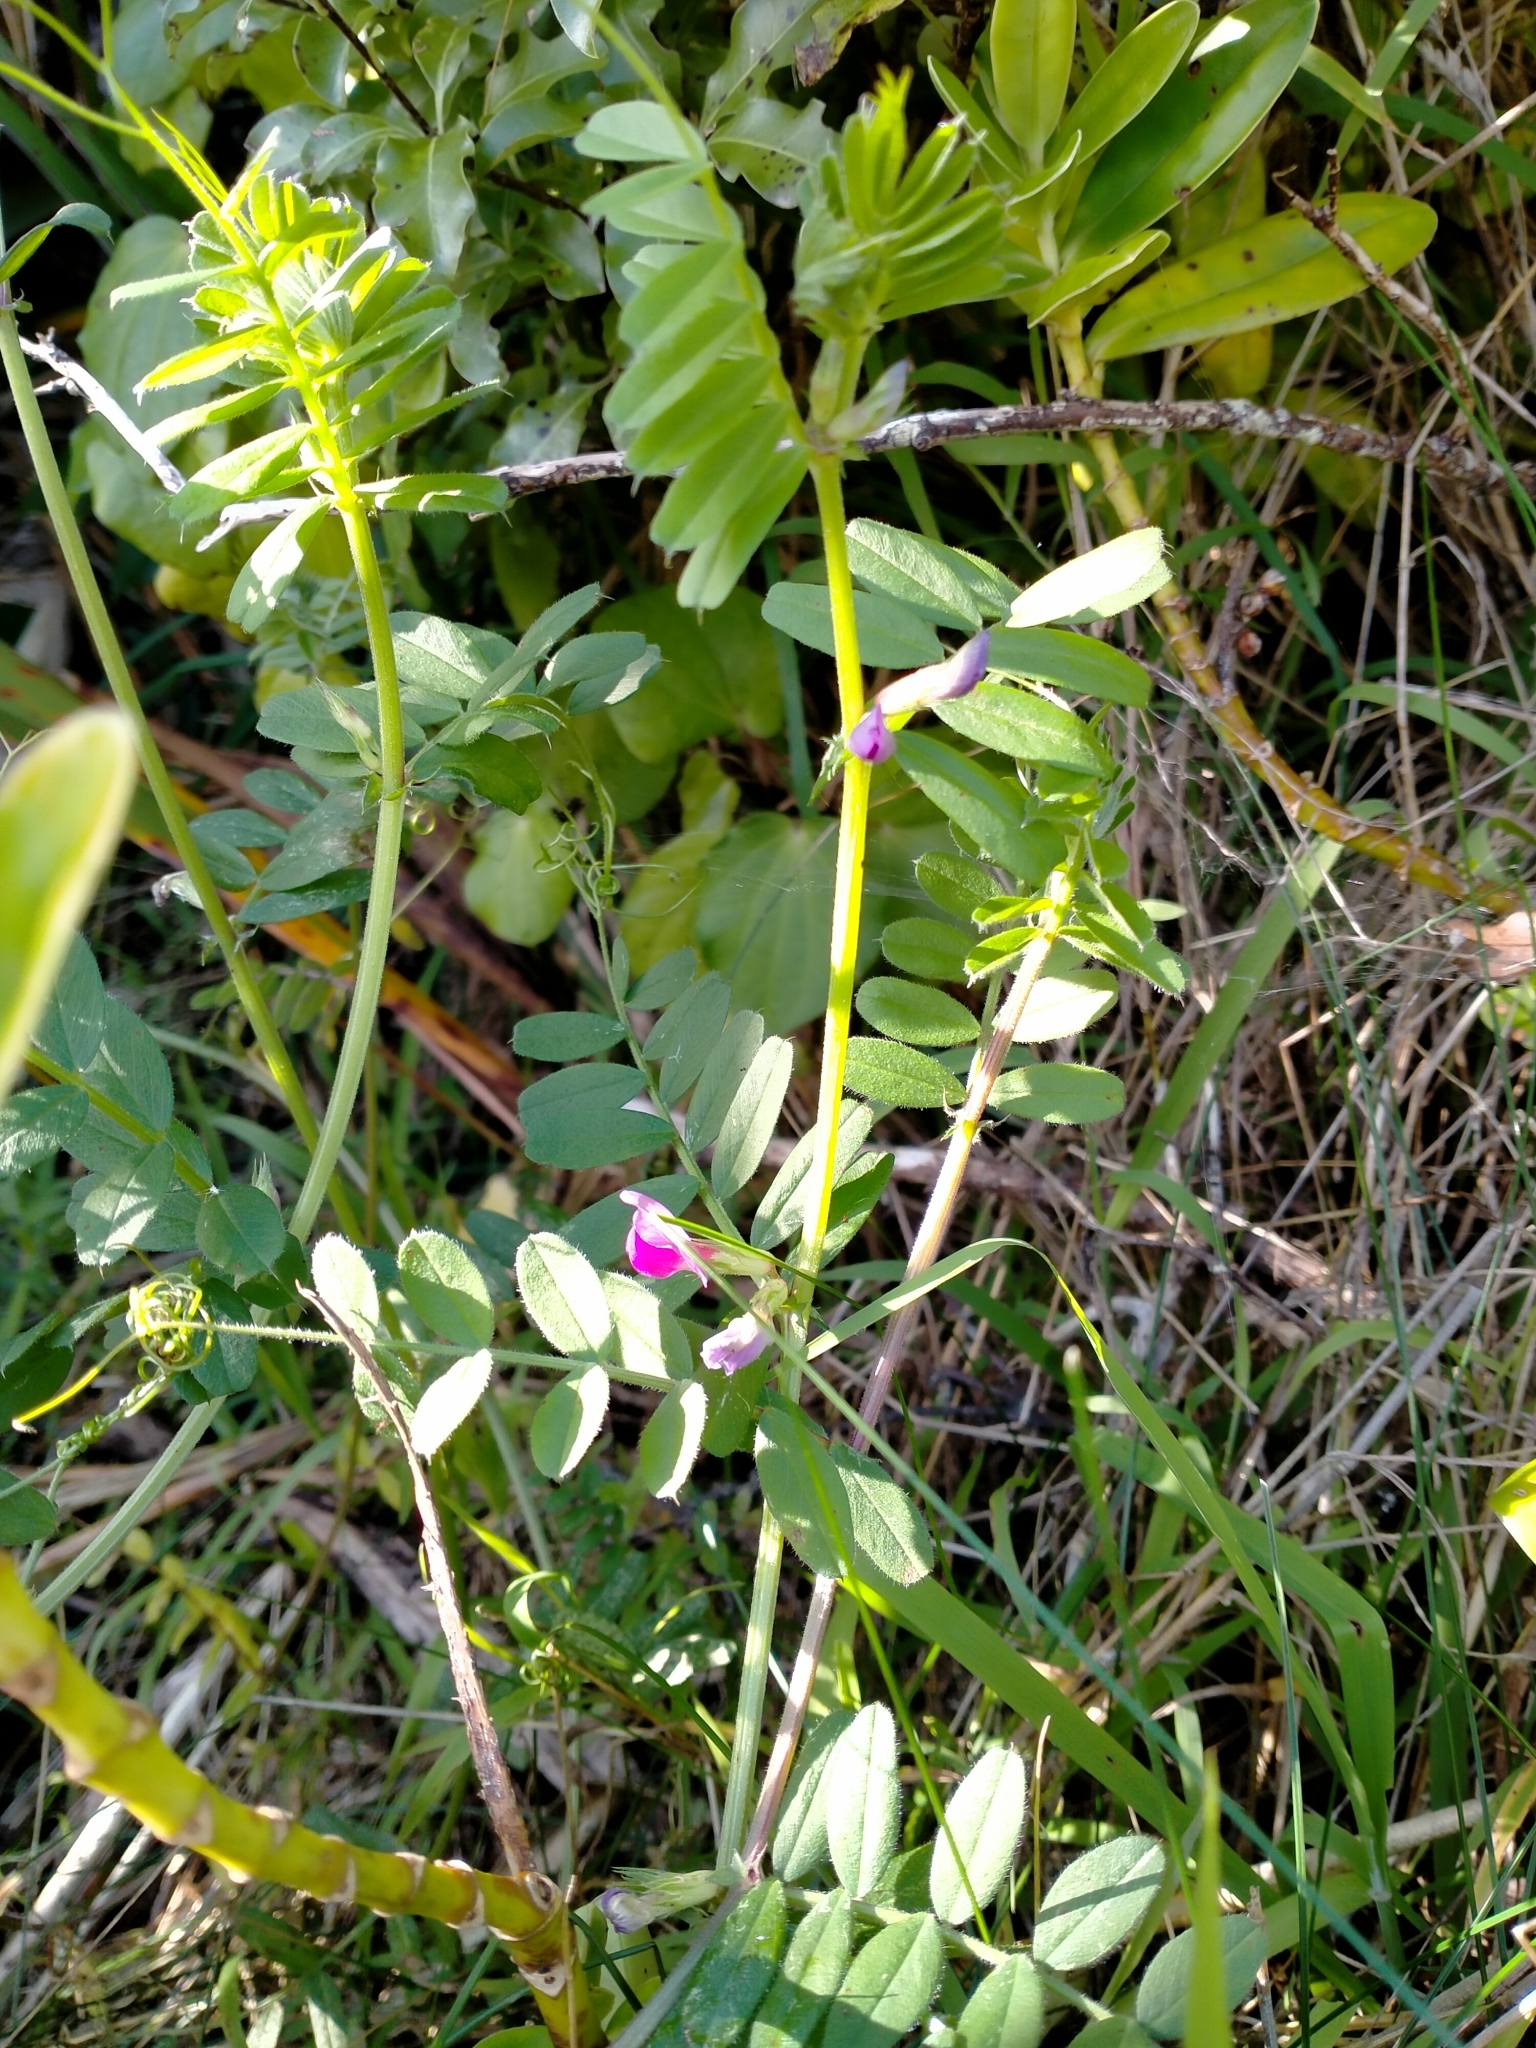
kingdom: Plantae
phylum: Tracheophyta
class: Magnoliopsida
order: Fabales
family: Fabaceae
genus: Vicia
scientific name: Vicia sativa
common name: Garden vetch
